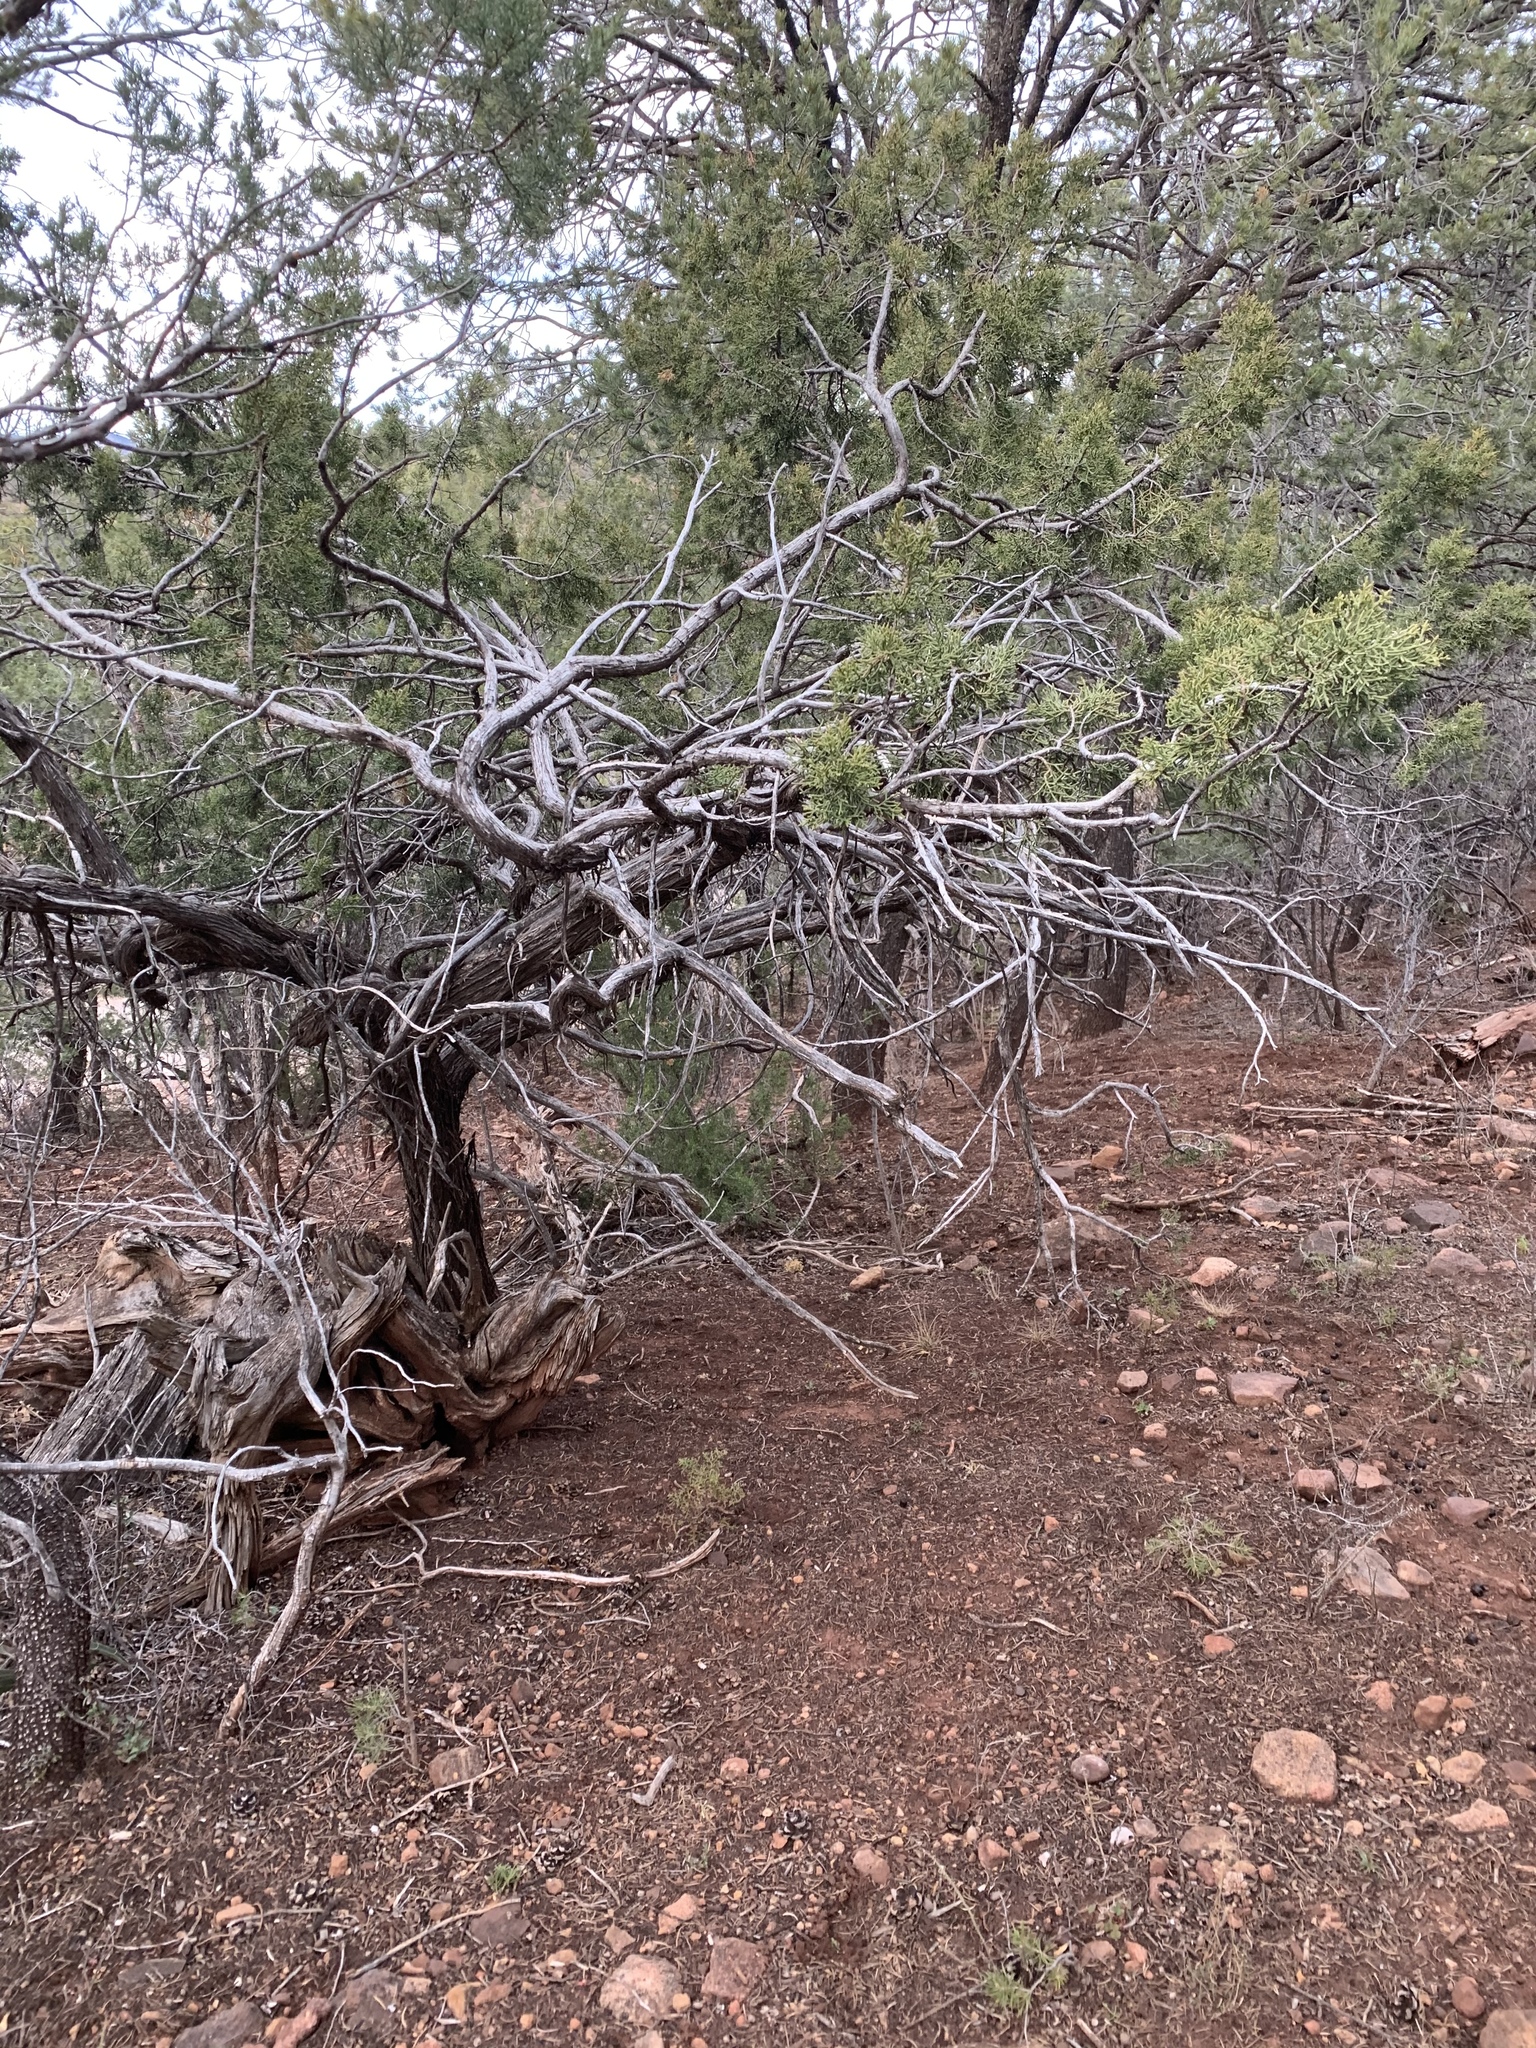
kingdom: Plantae
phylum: Tracheophyta
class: Pinopsida
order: Pinales
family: Cupressaceae
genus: Juniperus
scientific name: Juniperus monosperma
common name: One-seed juniper
